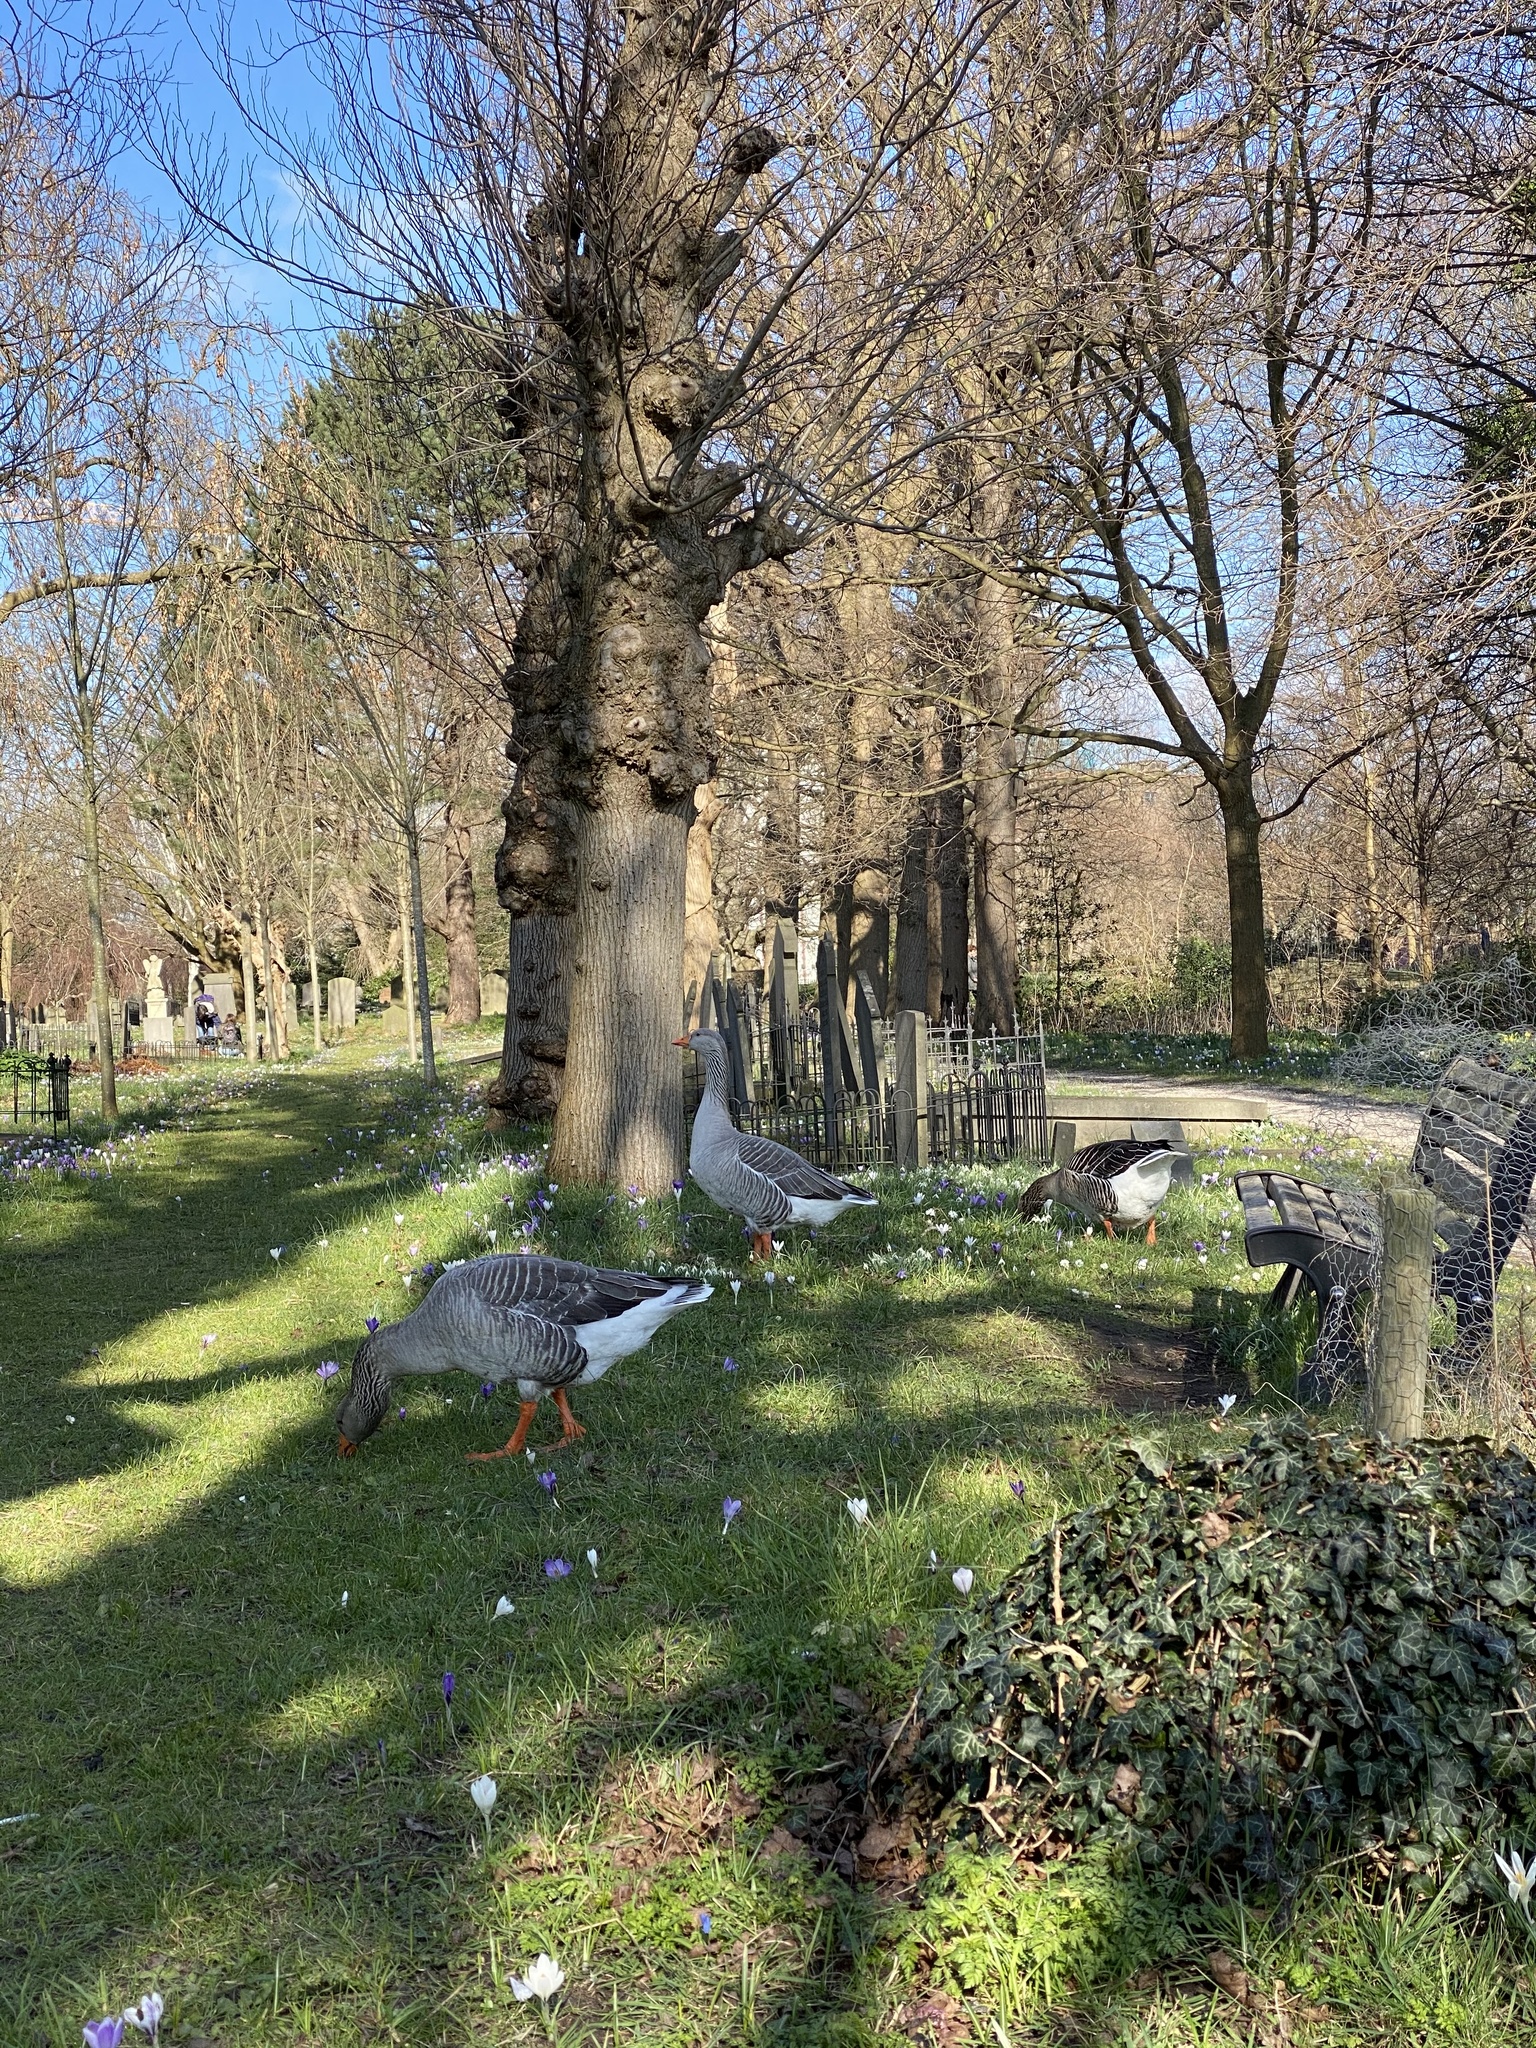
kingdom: Animalia
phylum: Chordata
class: Aves
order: Anseriformes
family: Anatidae
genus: Anser
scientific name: Anser anser
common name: Greylag goose
